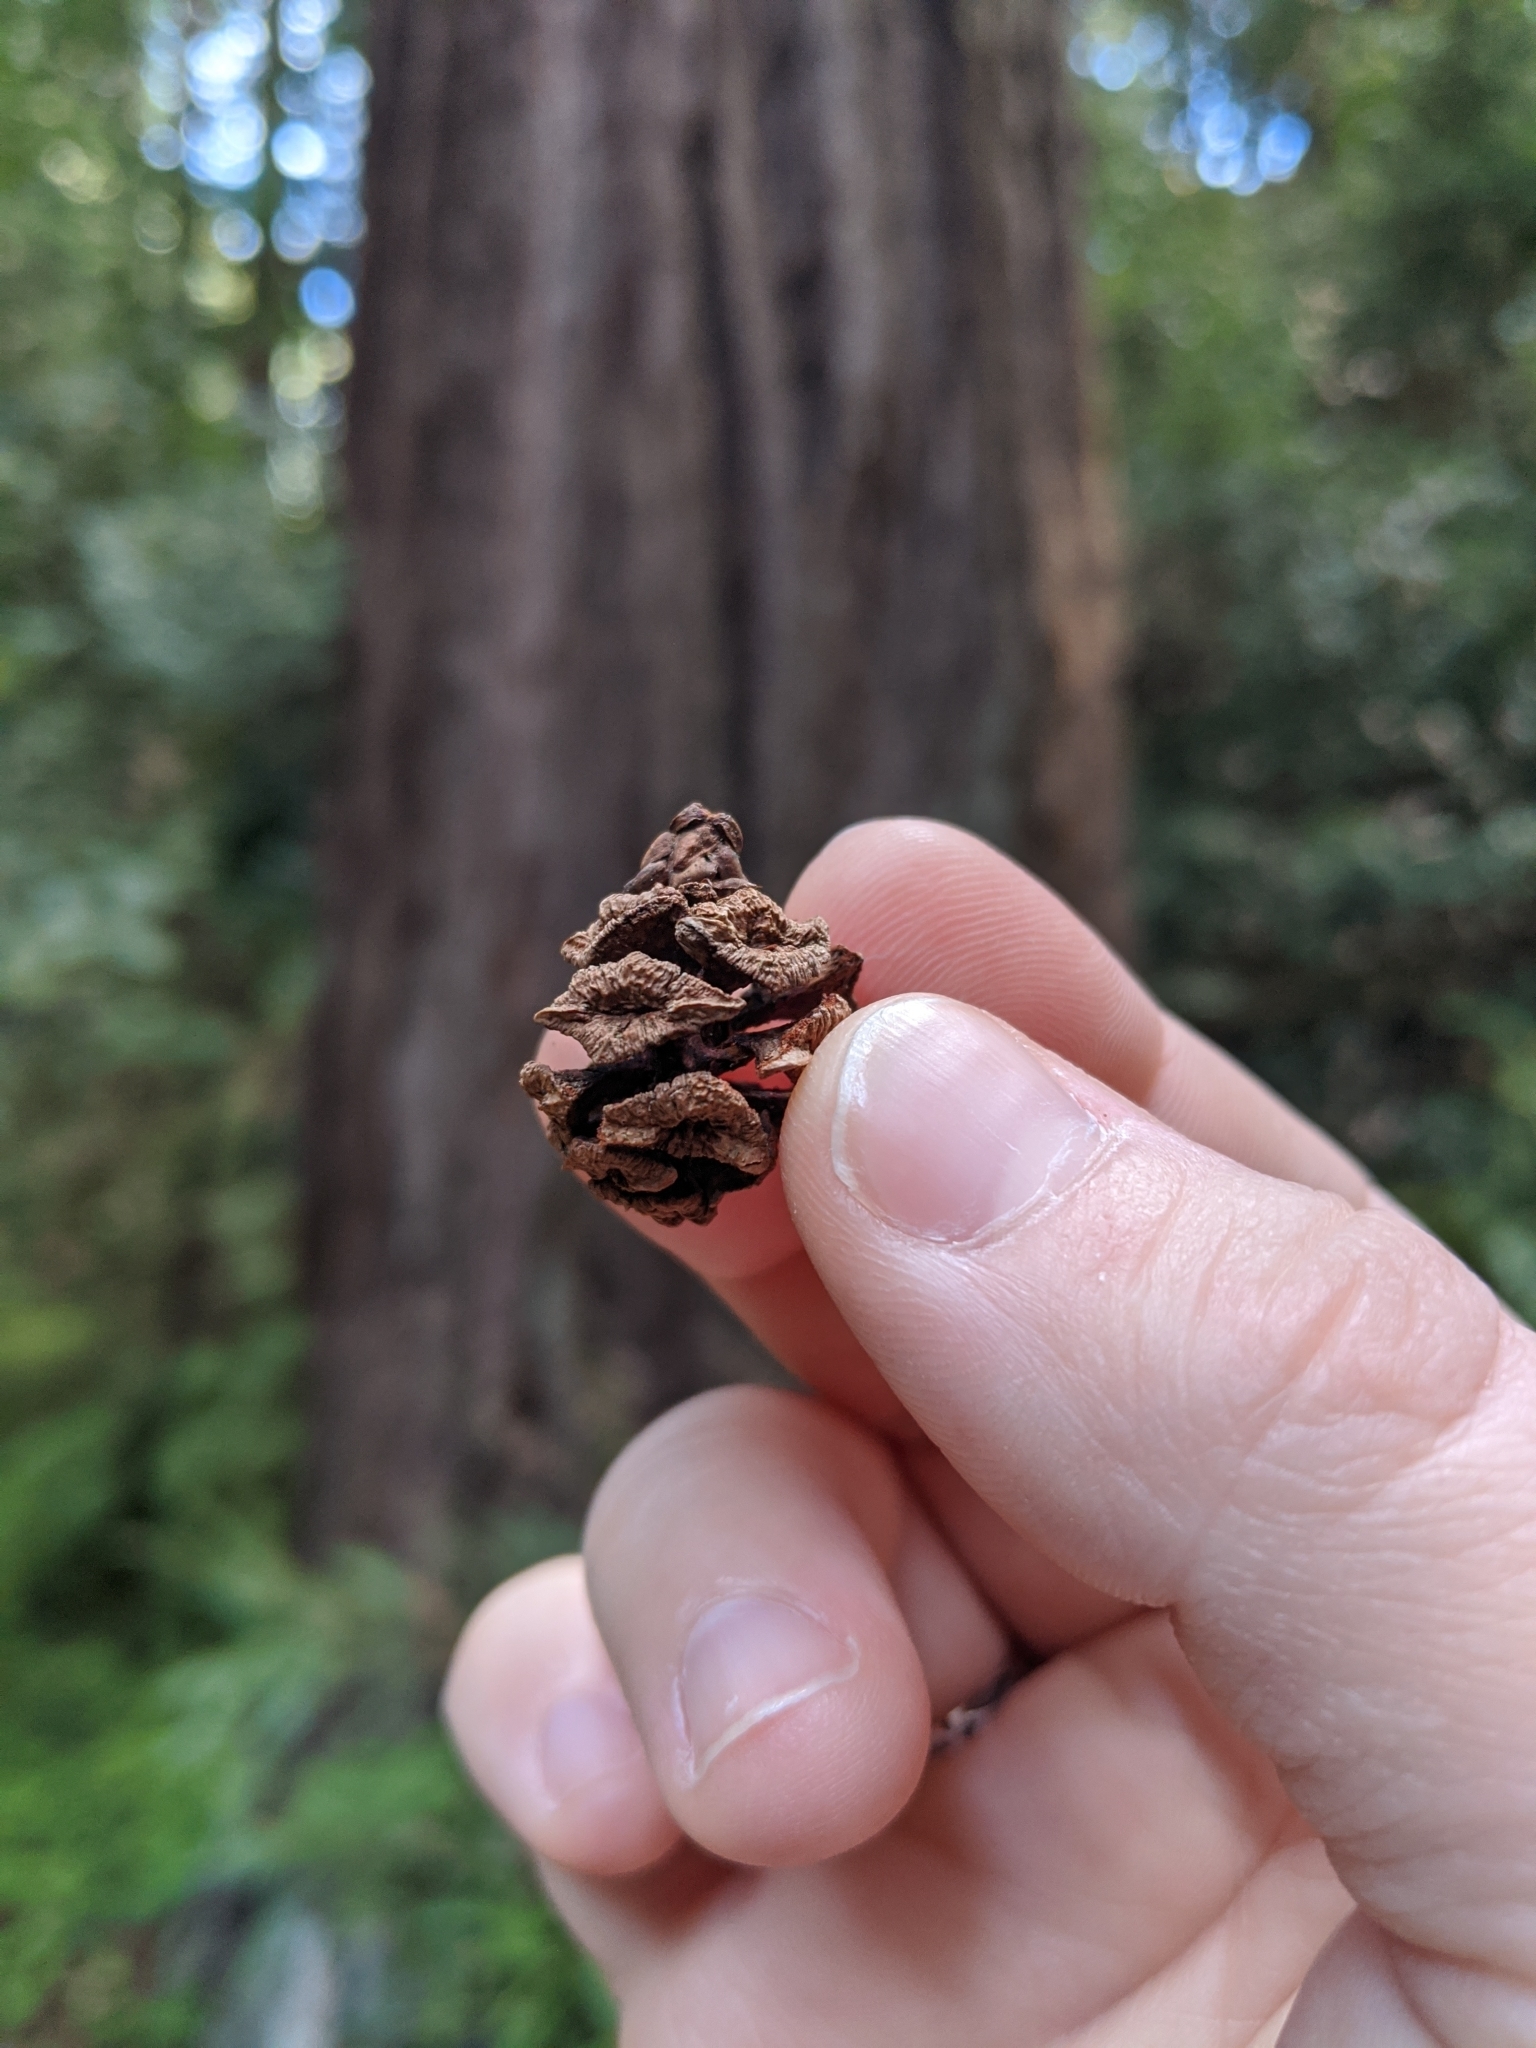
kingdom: Plantae
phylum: Tracheophyta
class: Pinopsida
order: Pinales
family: Cupressaceae
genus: Sequoia
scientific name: Sequoia sempervirens
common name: Coast redwood
